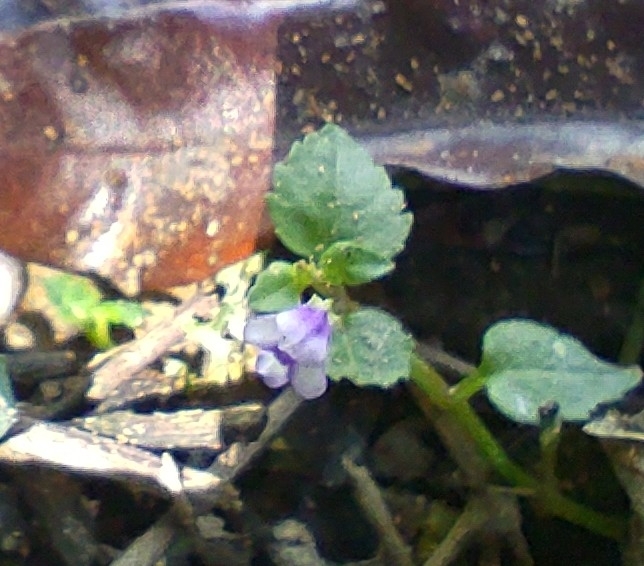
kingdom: Plantae
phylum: Tracheophyta
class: Magnoliopsida
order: Lamiales
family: Linderniaceae
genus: Torenia
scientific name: Torenia crustacea
